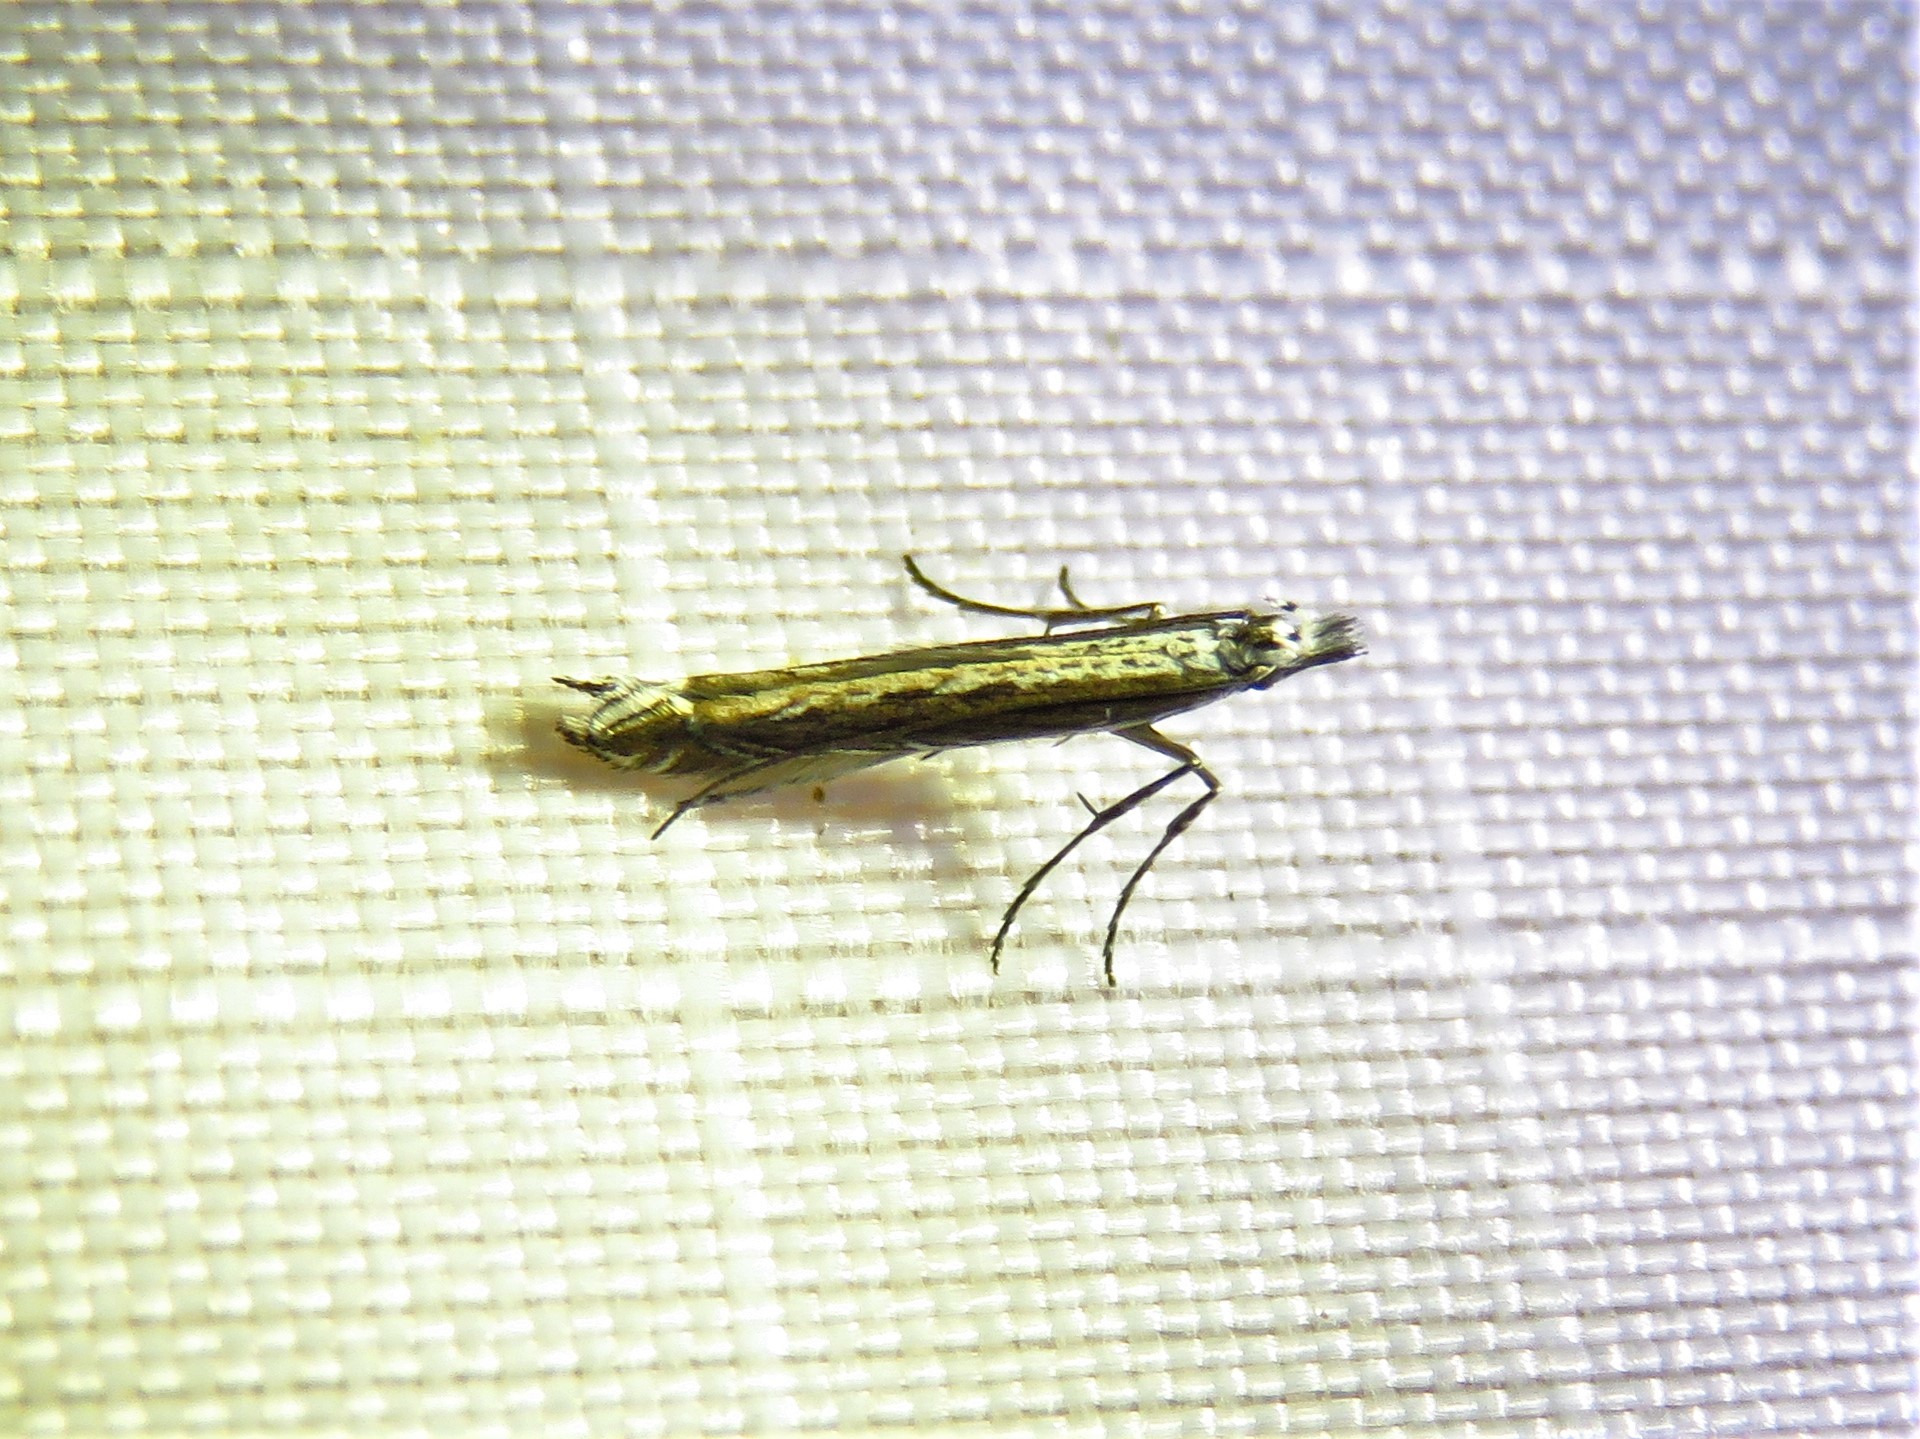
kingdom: Plantae
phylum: Rhodophyta
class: Florideophyceae
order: Gracilariales
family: Gracilariaceae
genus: Gracilaria
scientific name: Gracilaria
